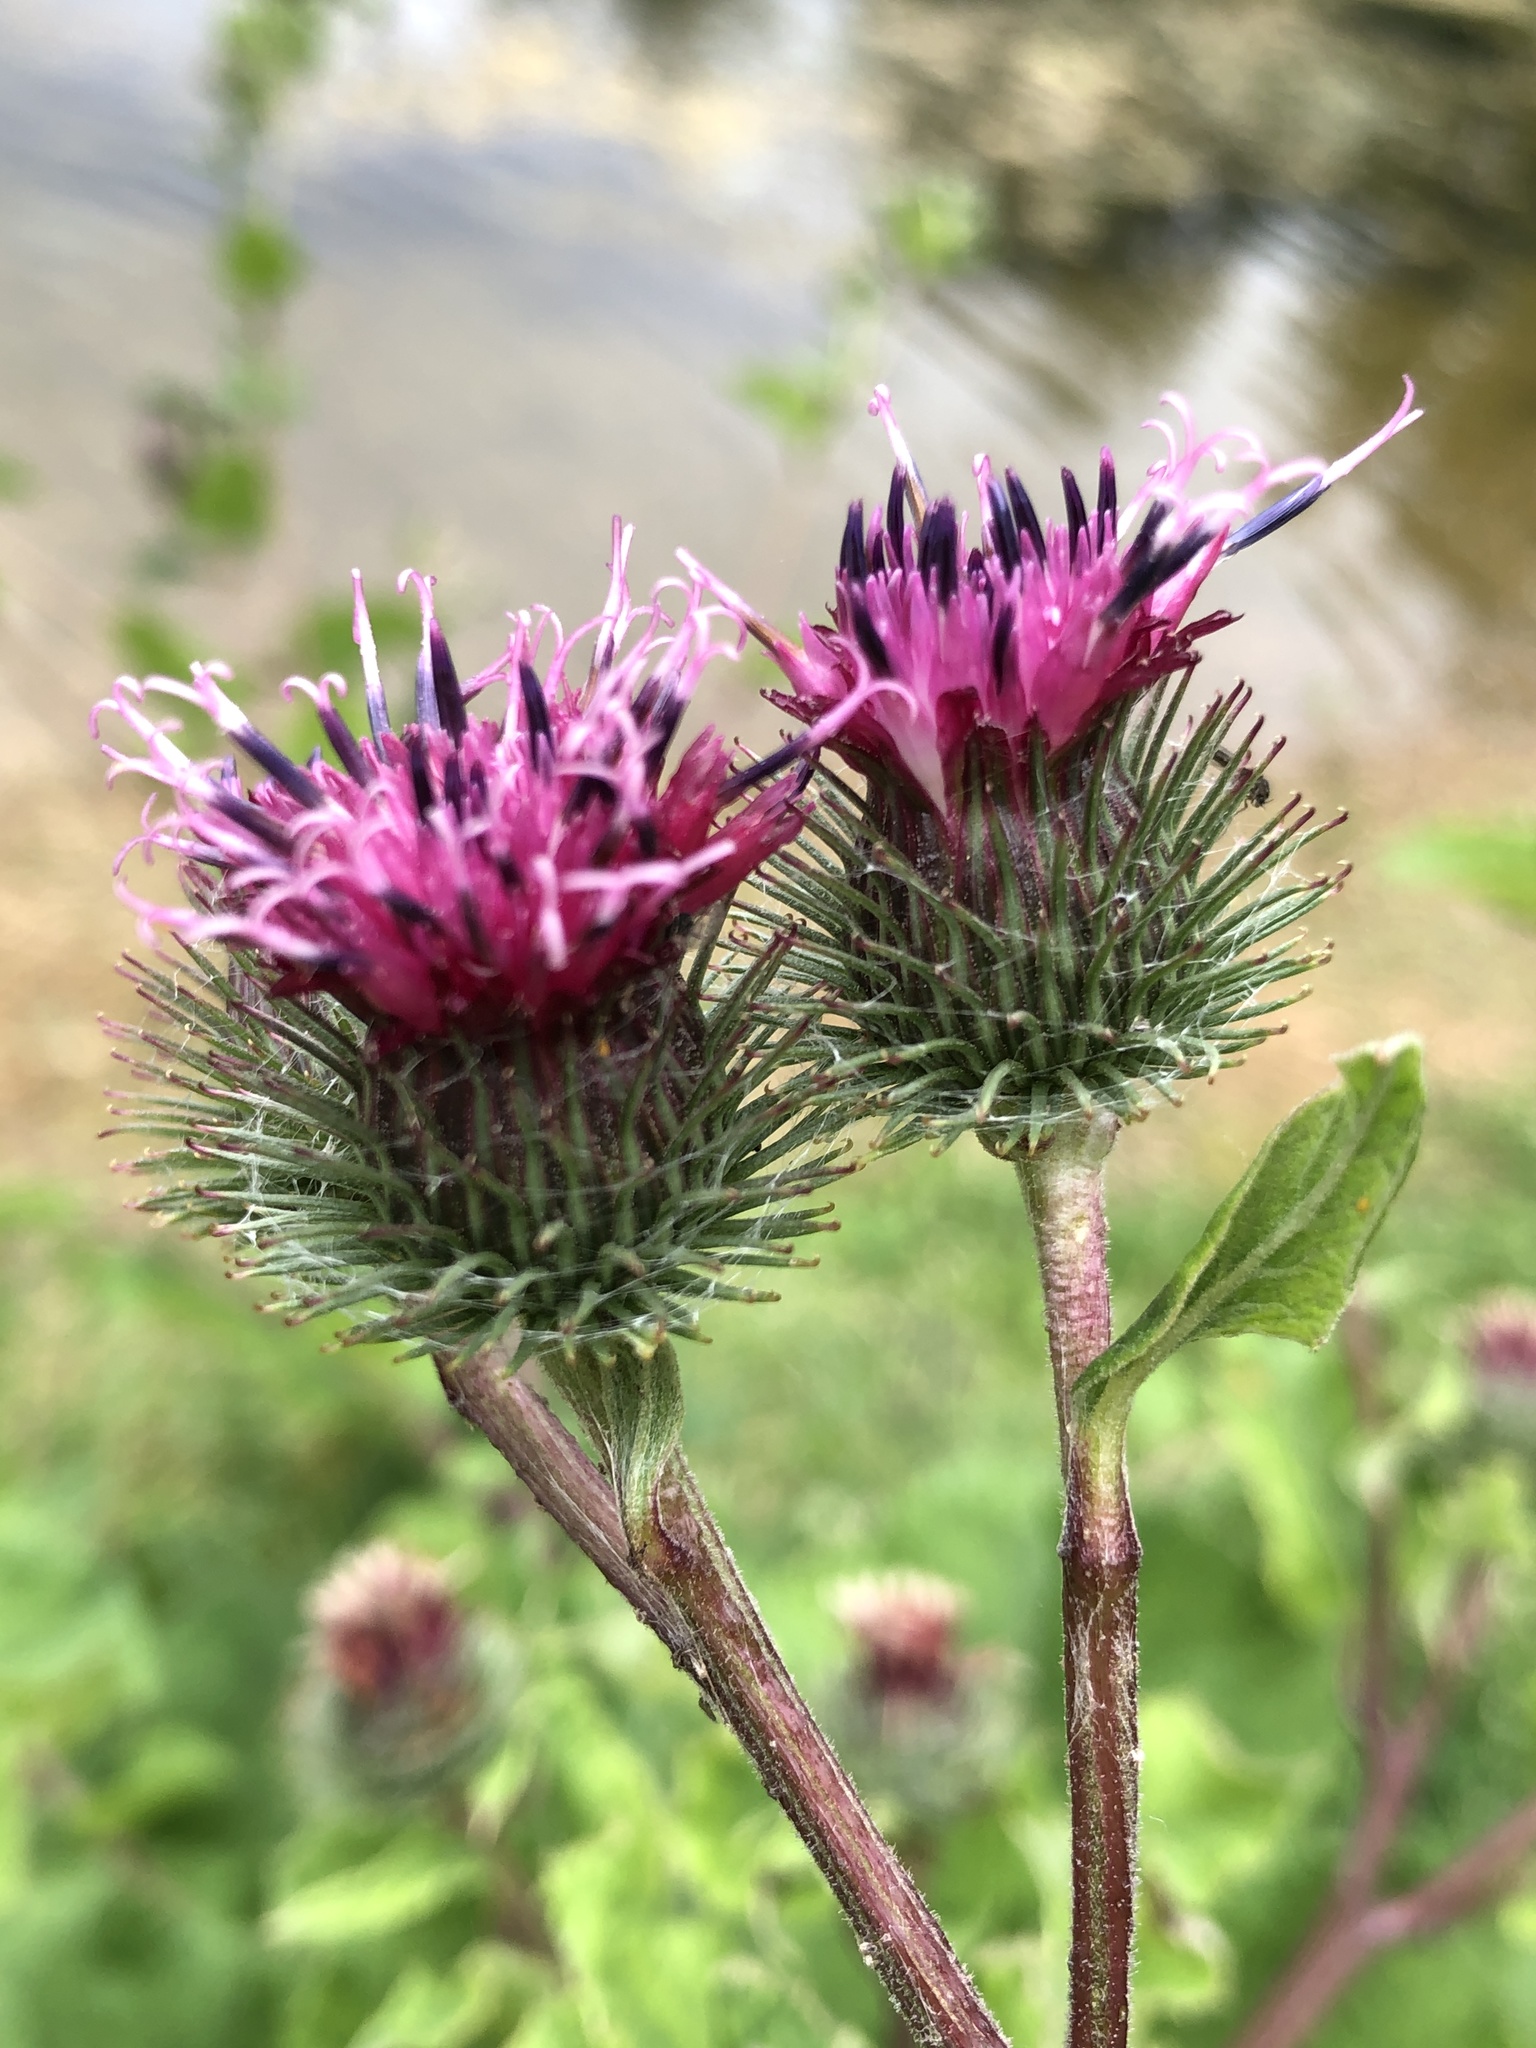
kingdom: Plantae
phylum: Tracheophyta
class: Magnoliopsida
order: Asterales
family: Asteraceae
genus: Arctium
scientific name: Arctium tomentosum
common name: Woolly burdock
